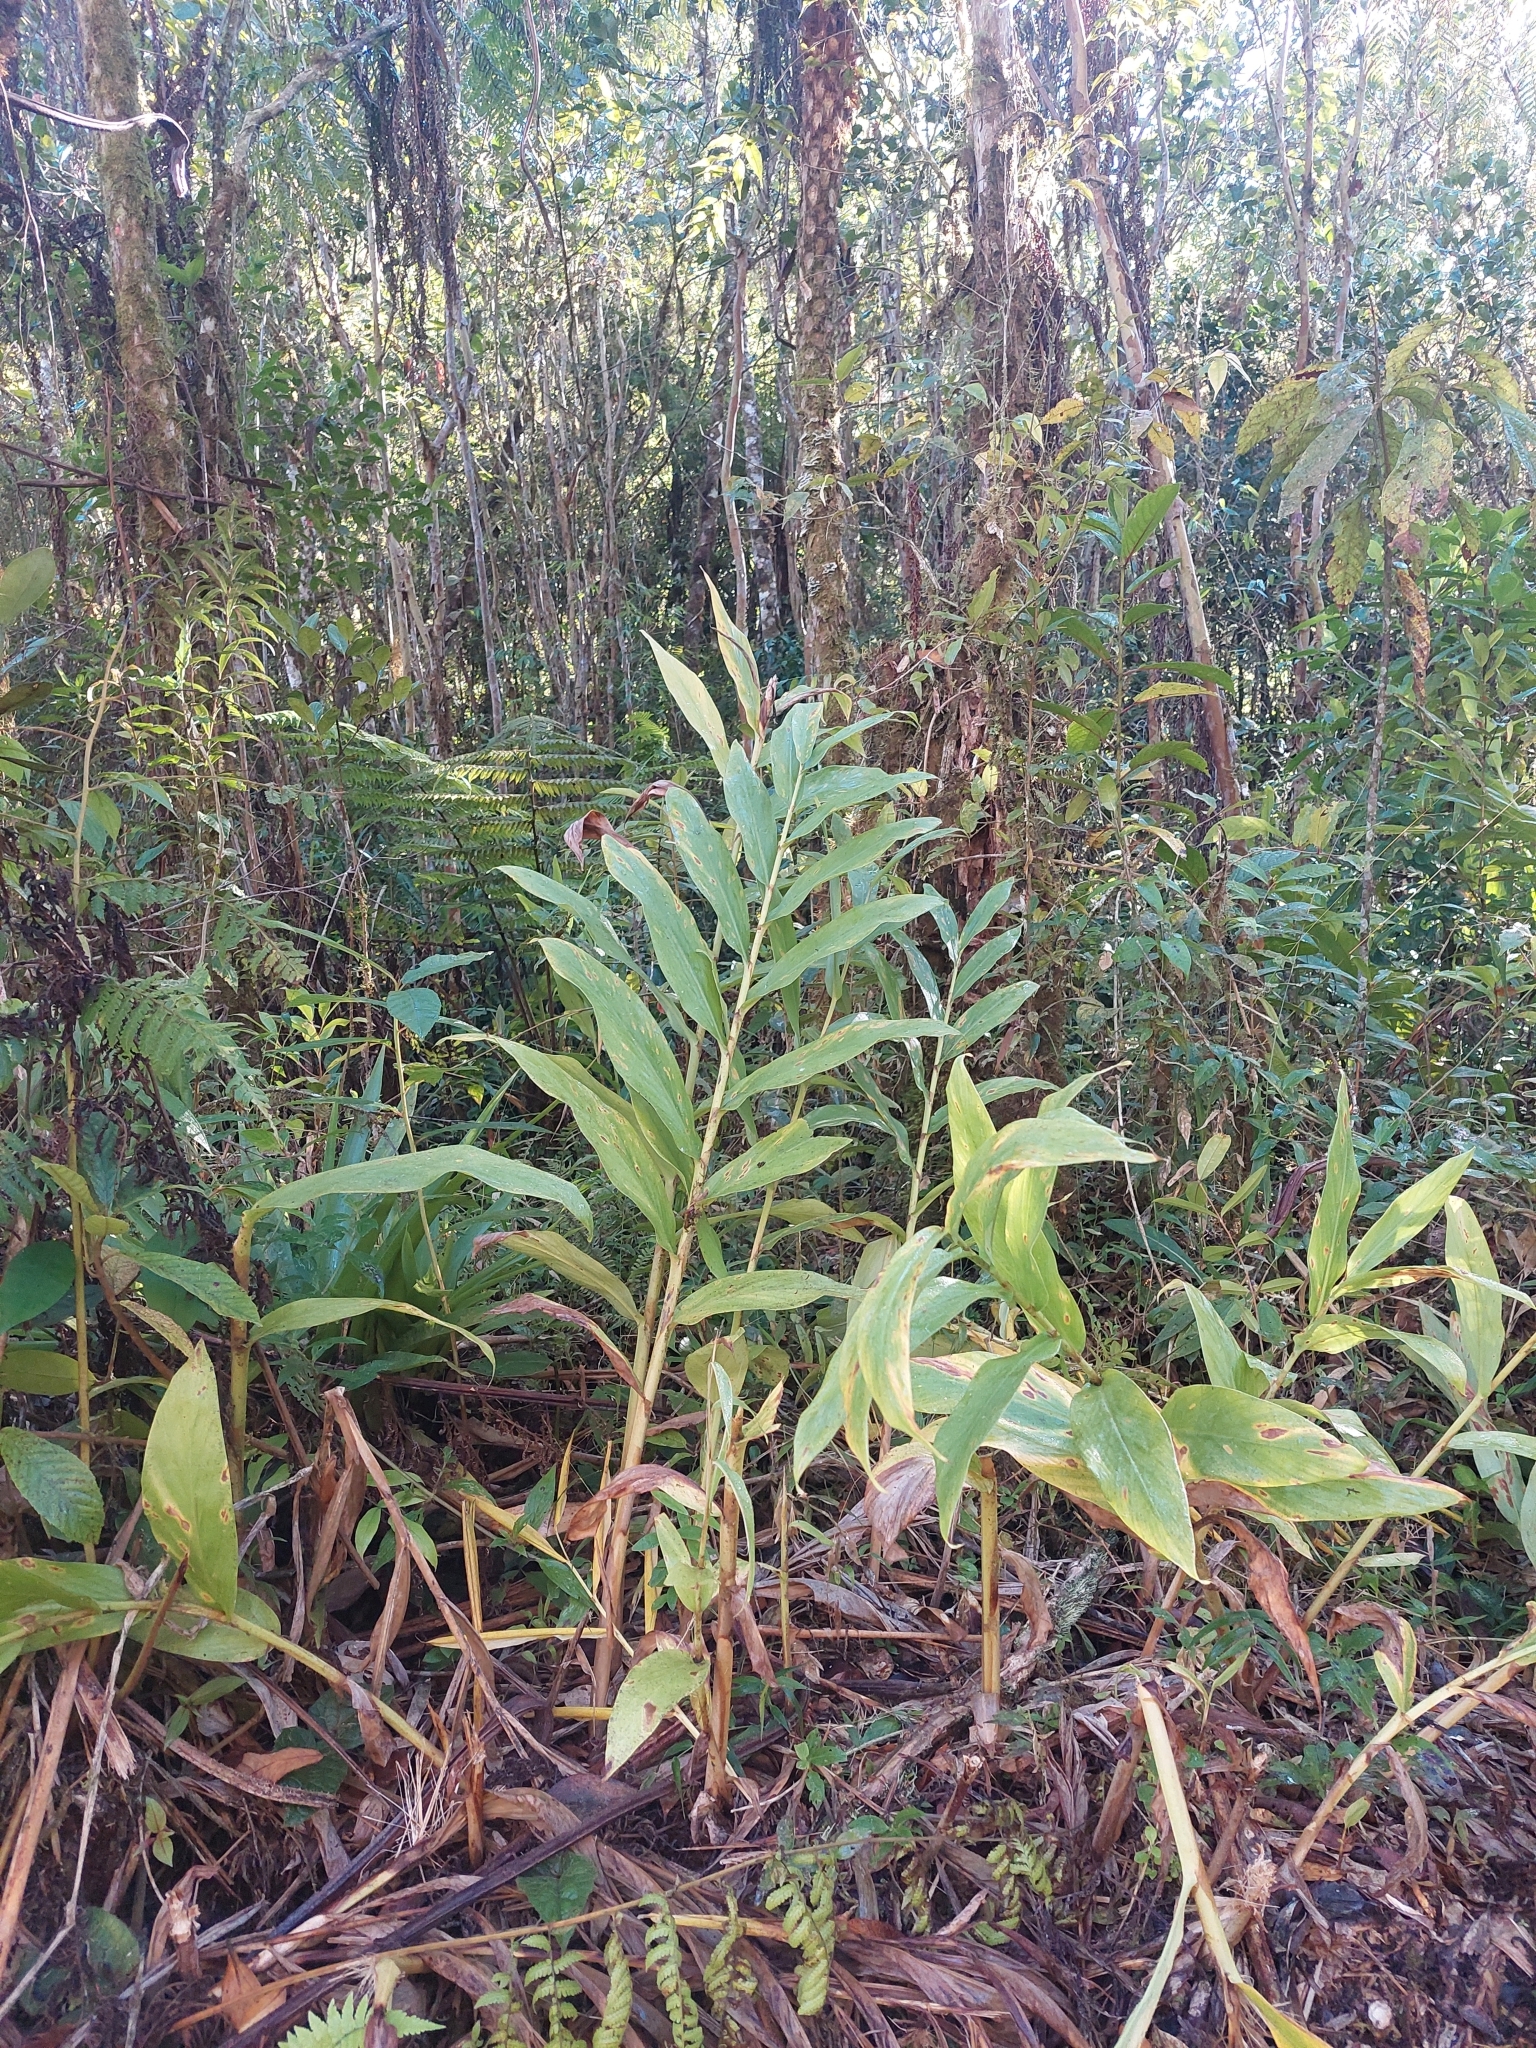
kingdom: Plantae
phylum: Tracheophyta
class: Liliopsida
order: Zingiberales
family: Zingiberaceae
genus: Hedychium
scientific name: Hedychium coronarium
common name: White garland-lily
